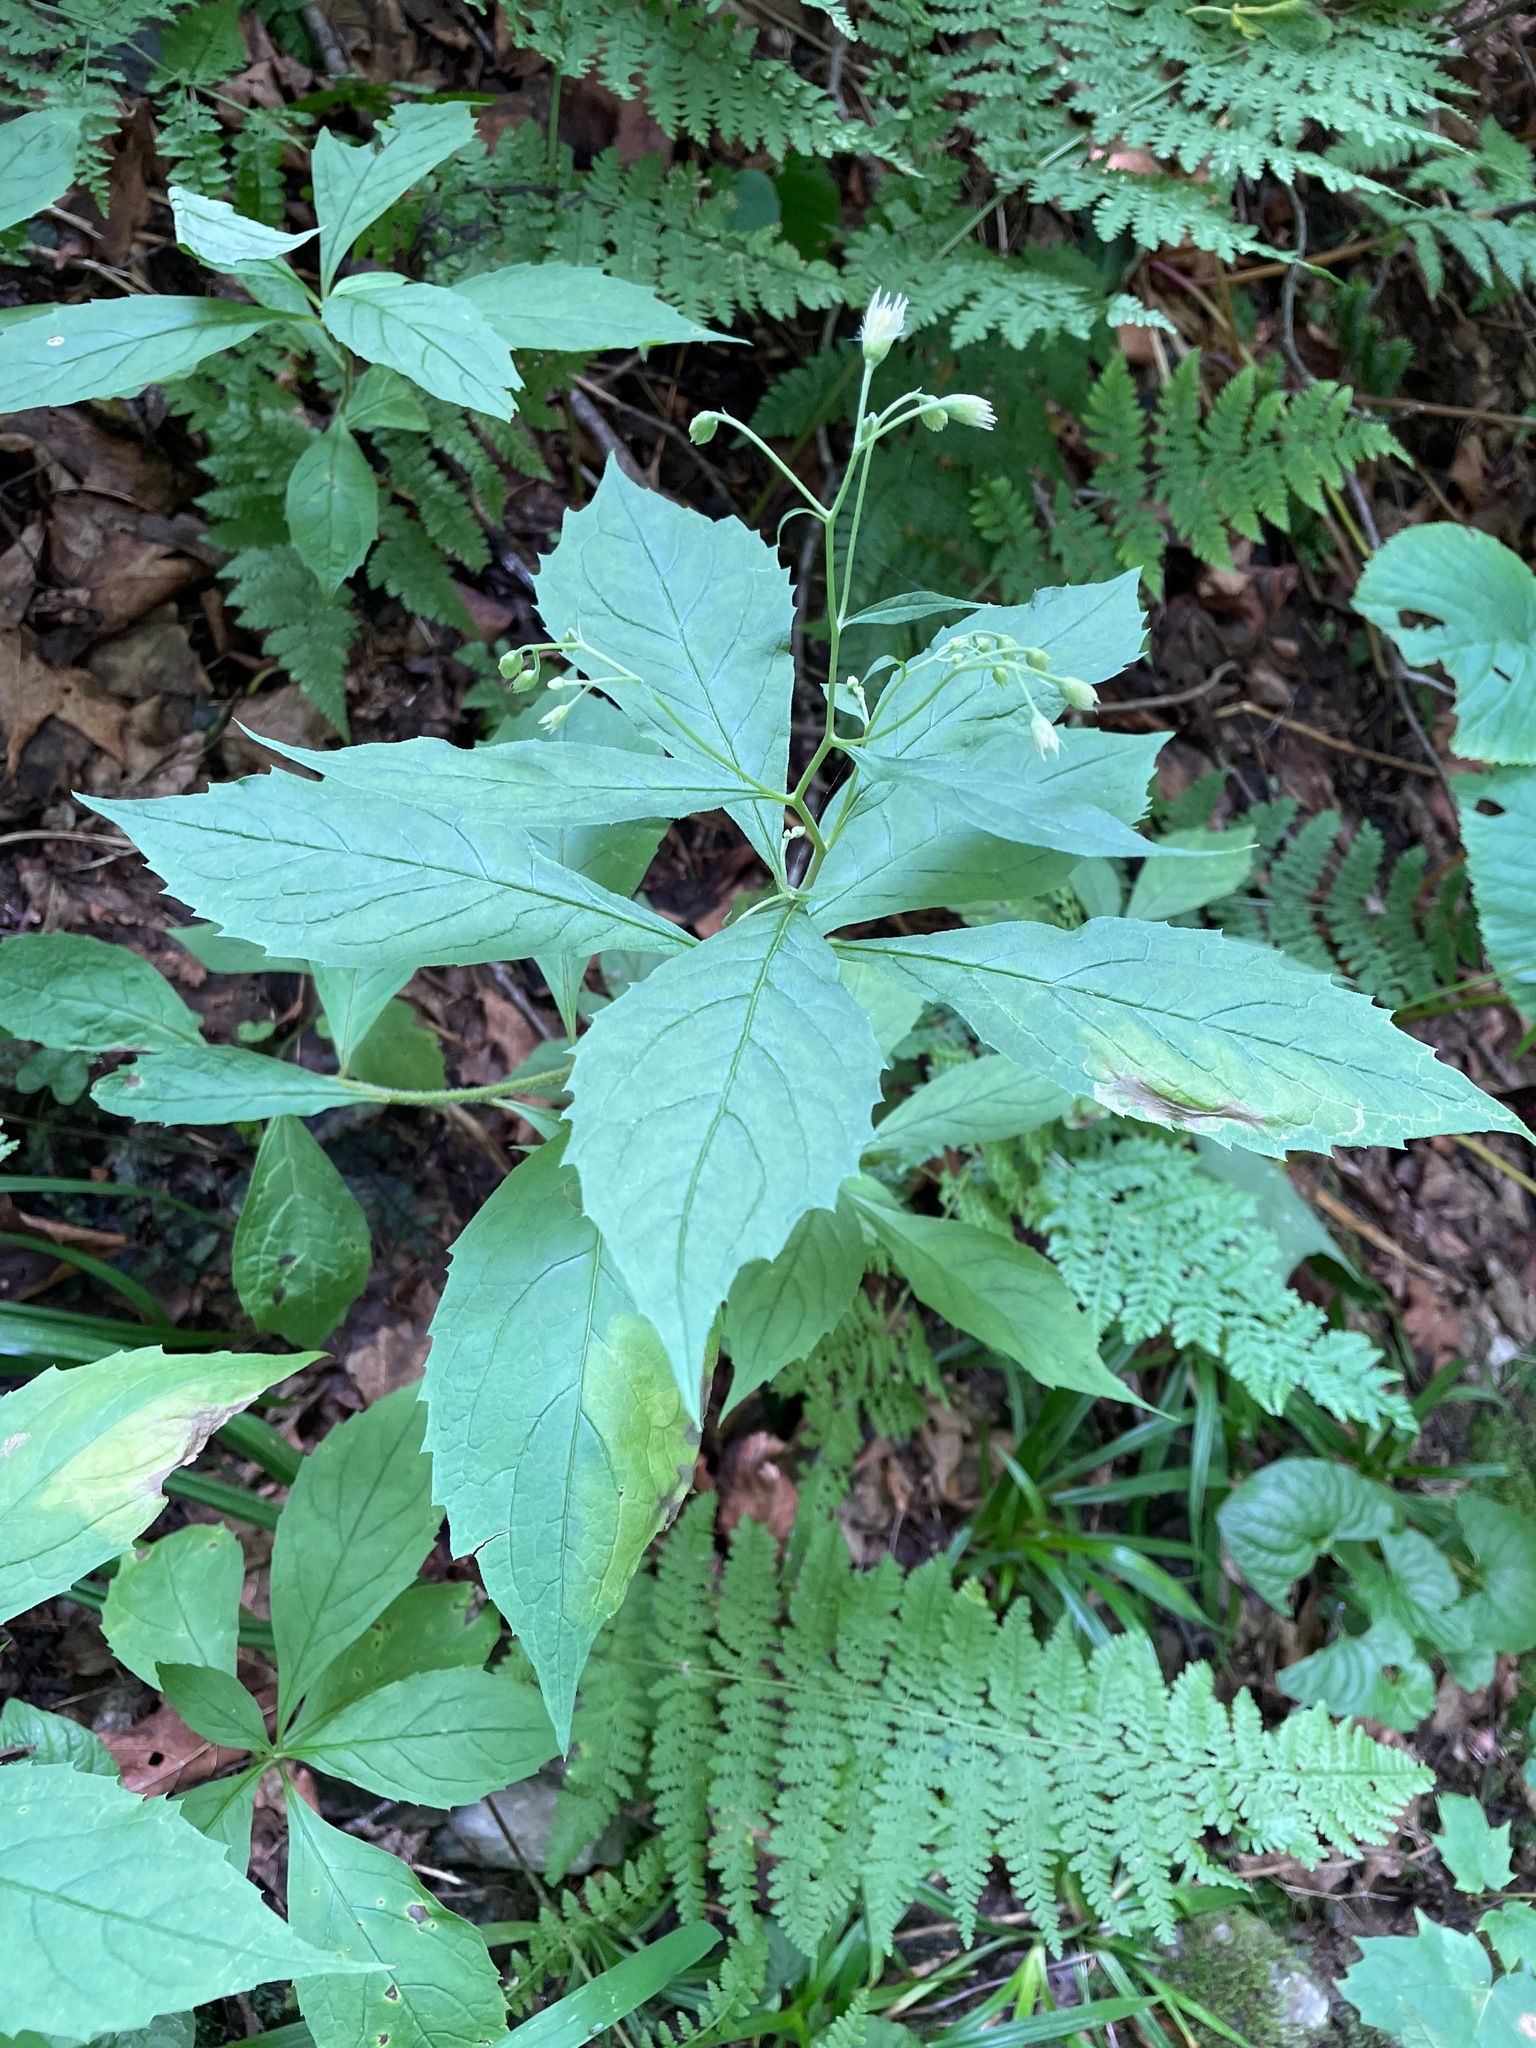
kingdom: Plantae
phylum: Tracheophyta
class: Magnoliopsida
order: Asterales
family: Asteraceae
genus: Oclemena
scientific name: Oclemena acuminata
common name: Mountain aster
